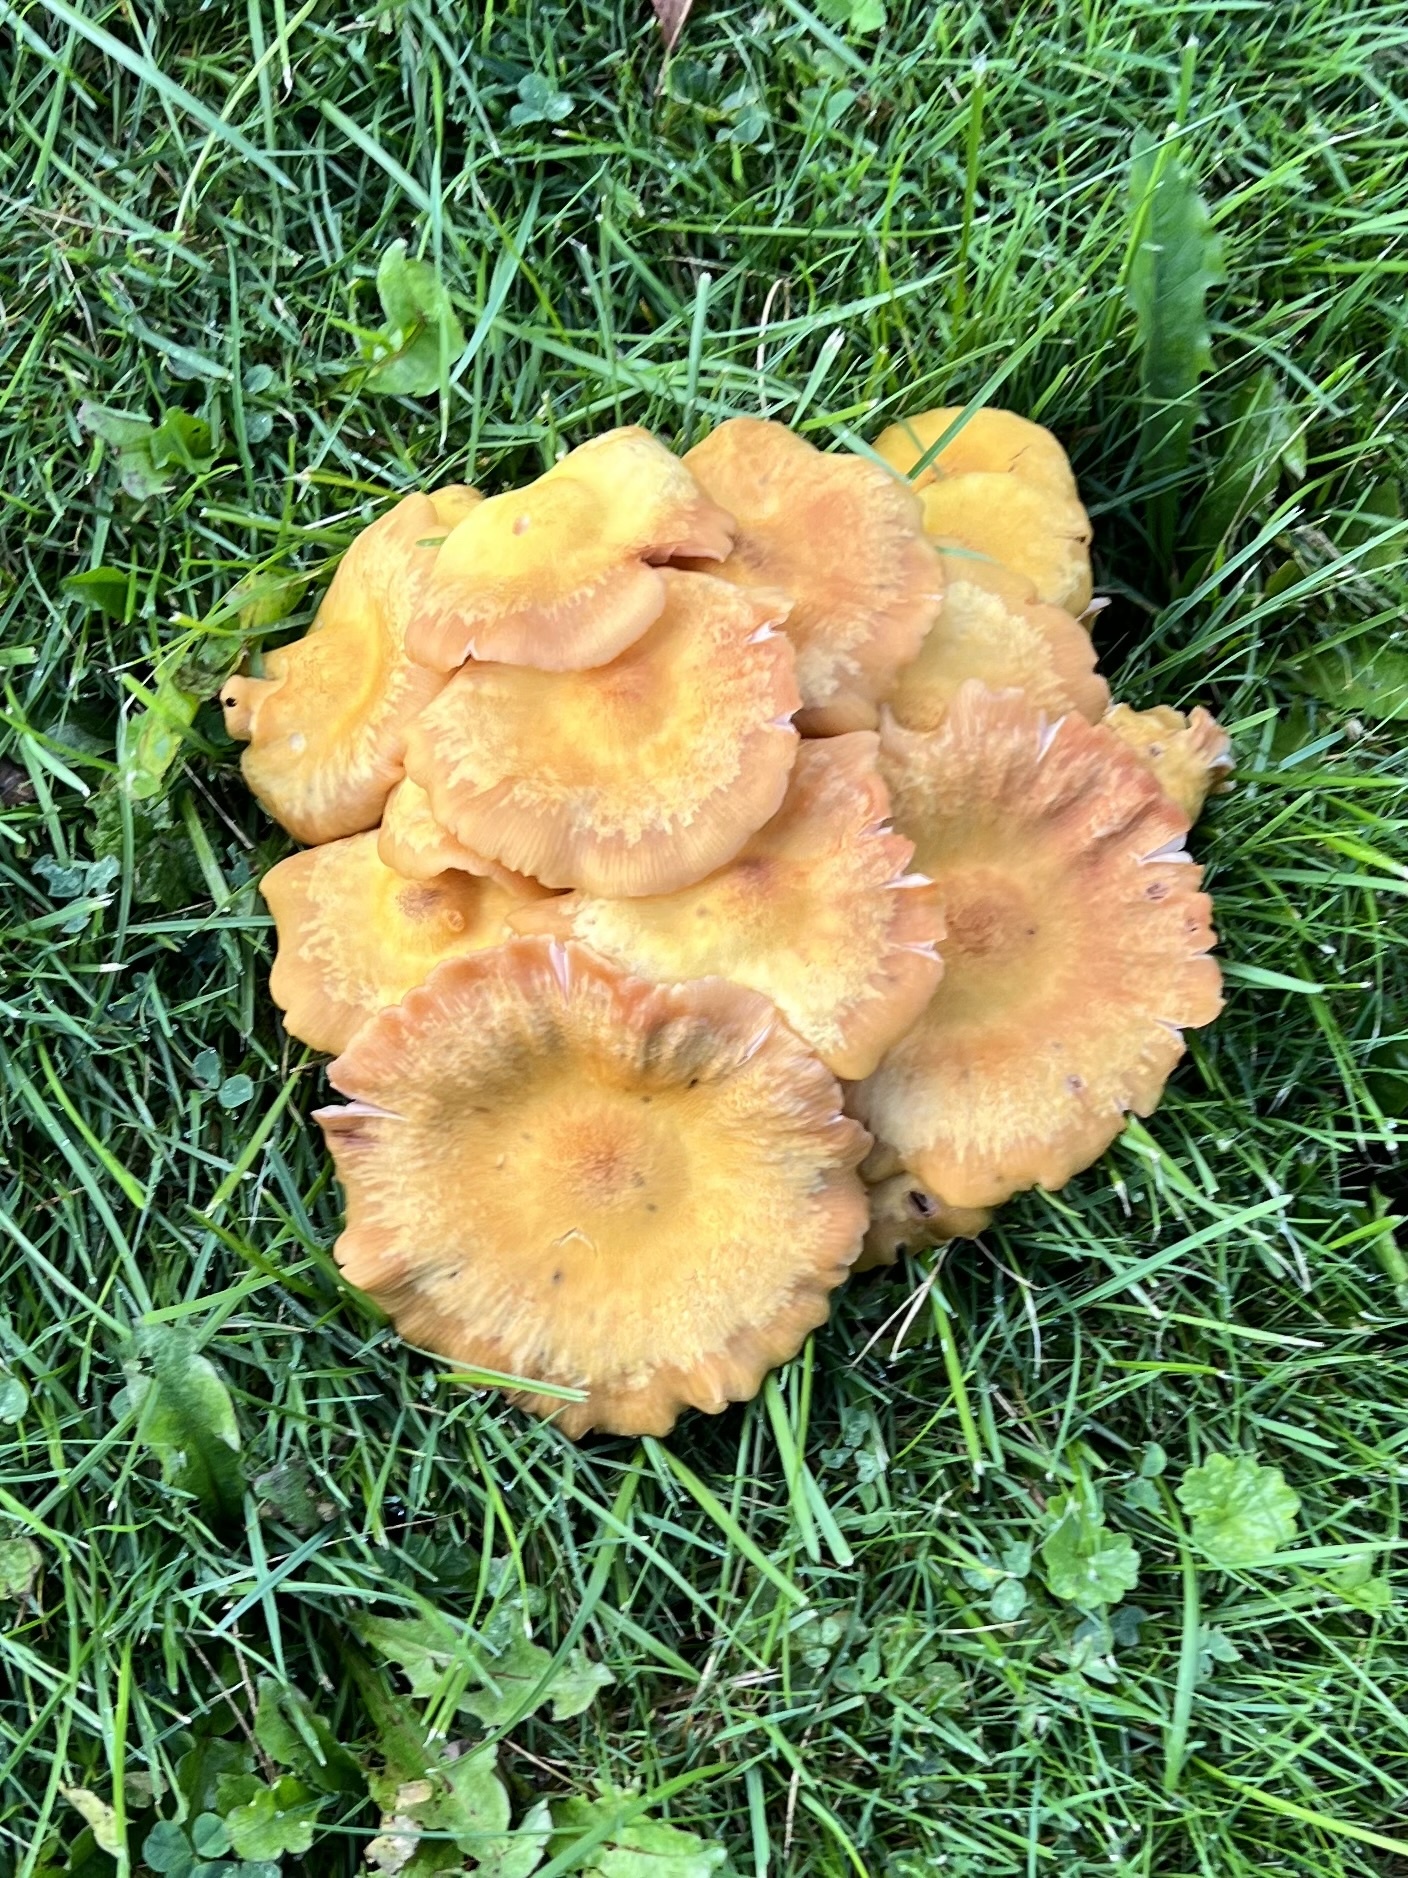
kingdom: Fungi
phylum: Basidiomycota
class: Agaricomycetes
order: Agaricales
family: Physalacriaceae
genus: Desarmillaria
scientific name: Desarmillaria caespitosa
